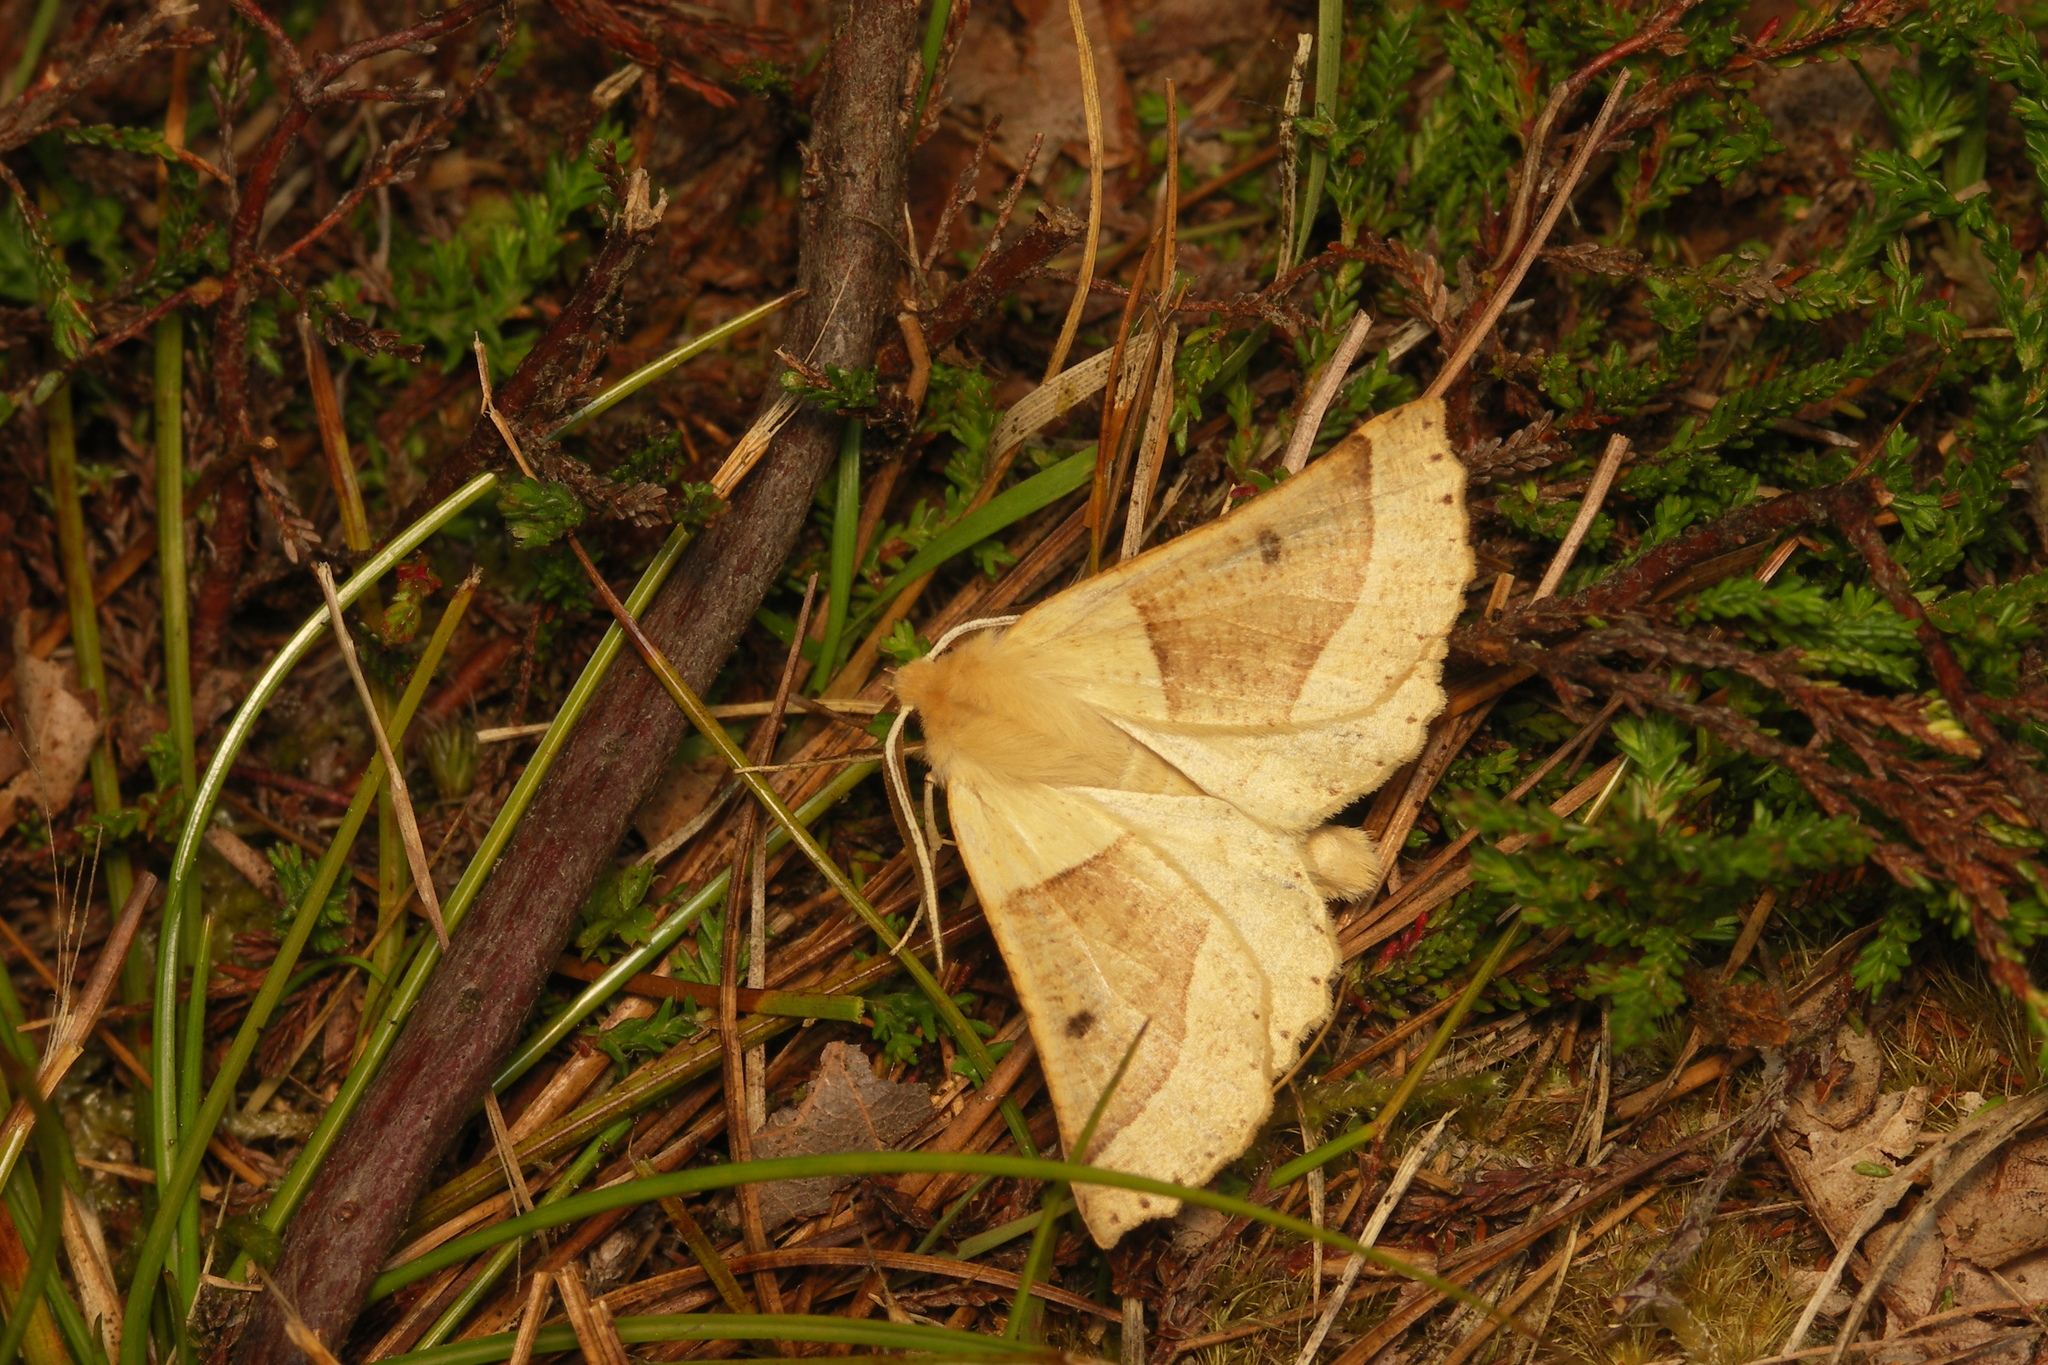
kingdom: Animalia
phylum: Arthropoda
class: Insecta
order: Lepidoptera
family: Geometridae
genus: Crocallis
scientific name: Crocallis elinguaria
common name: Scalloped oak
